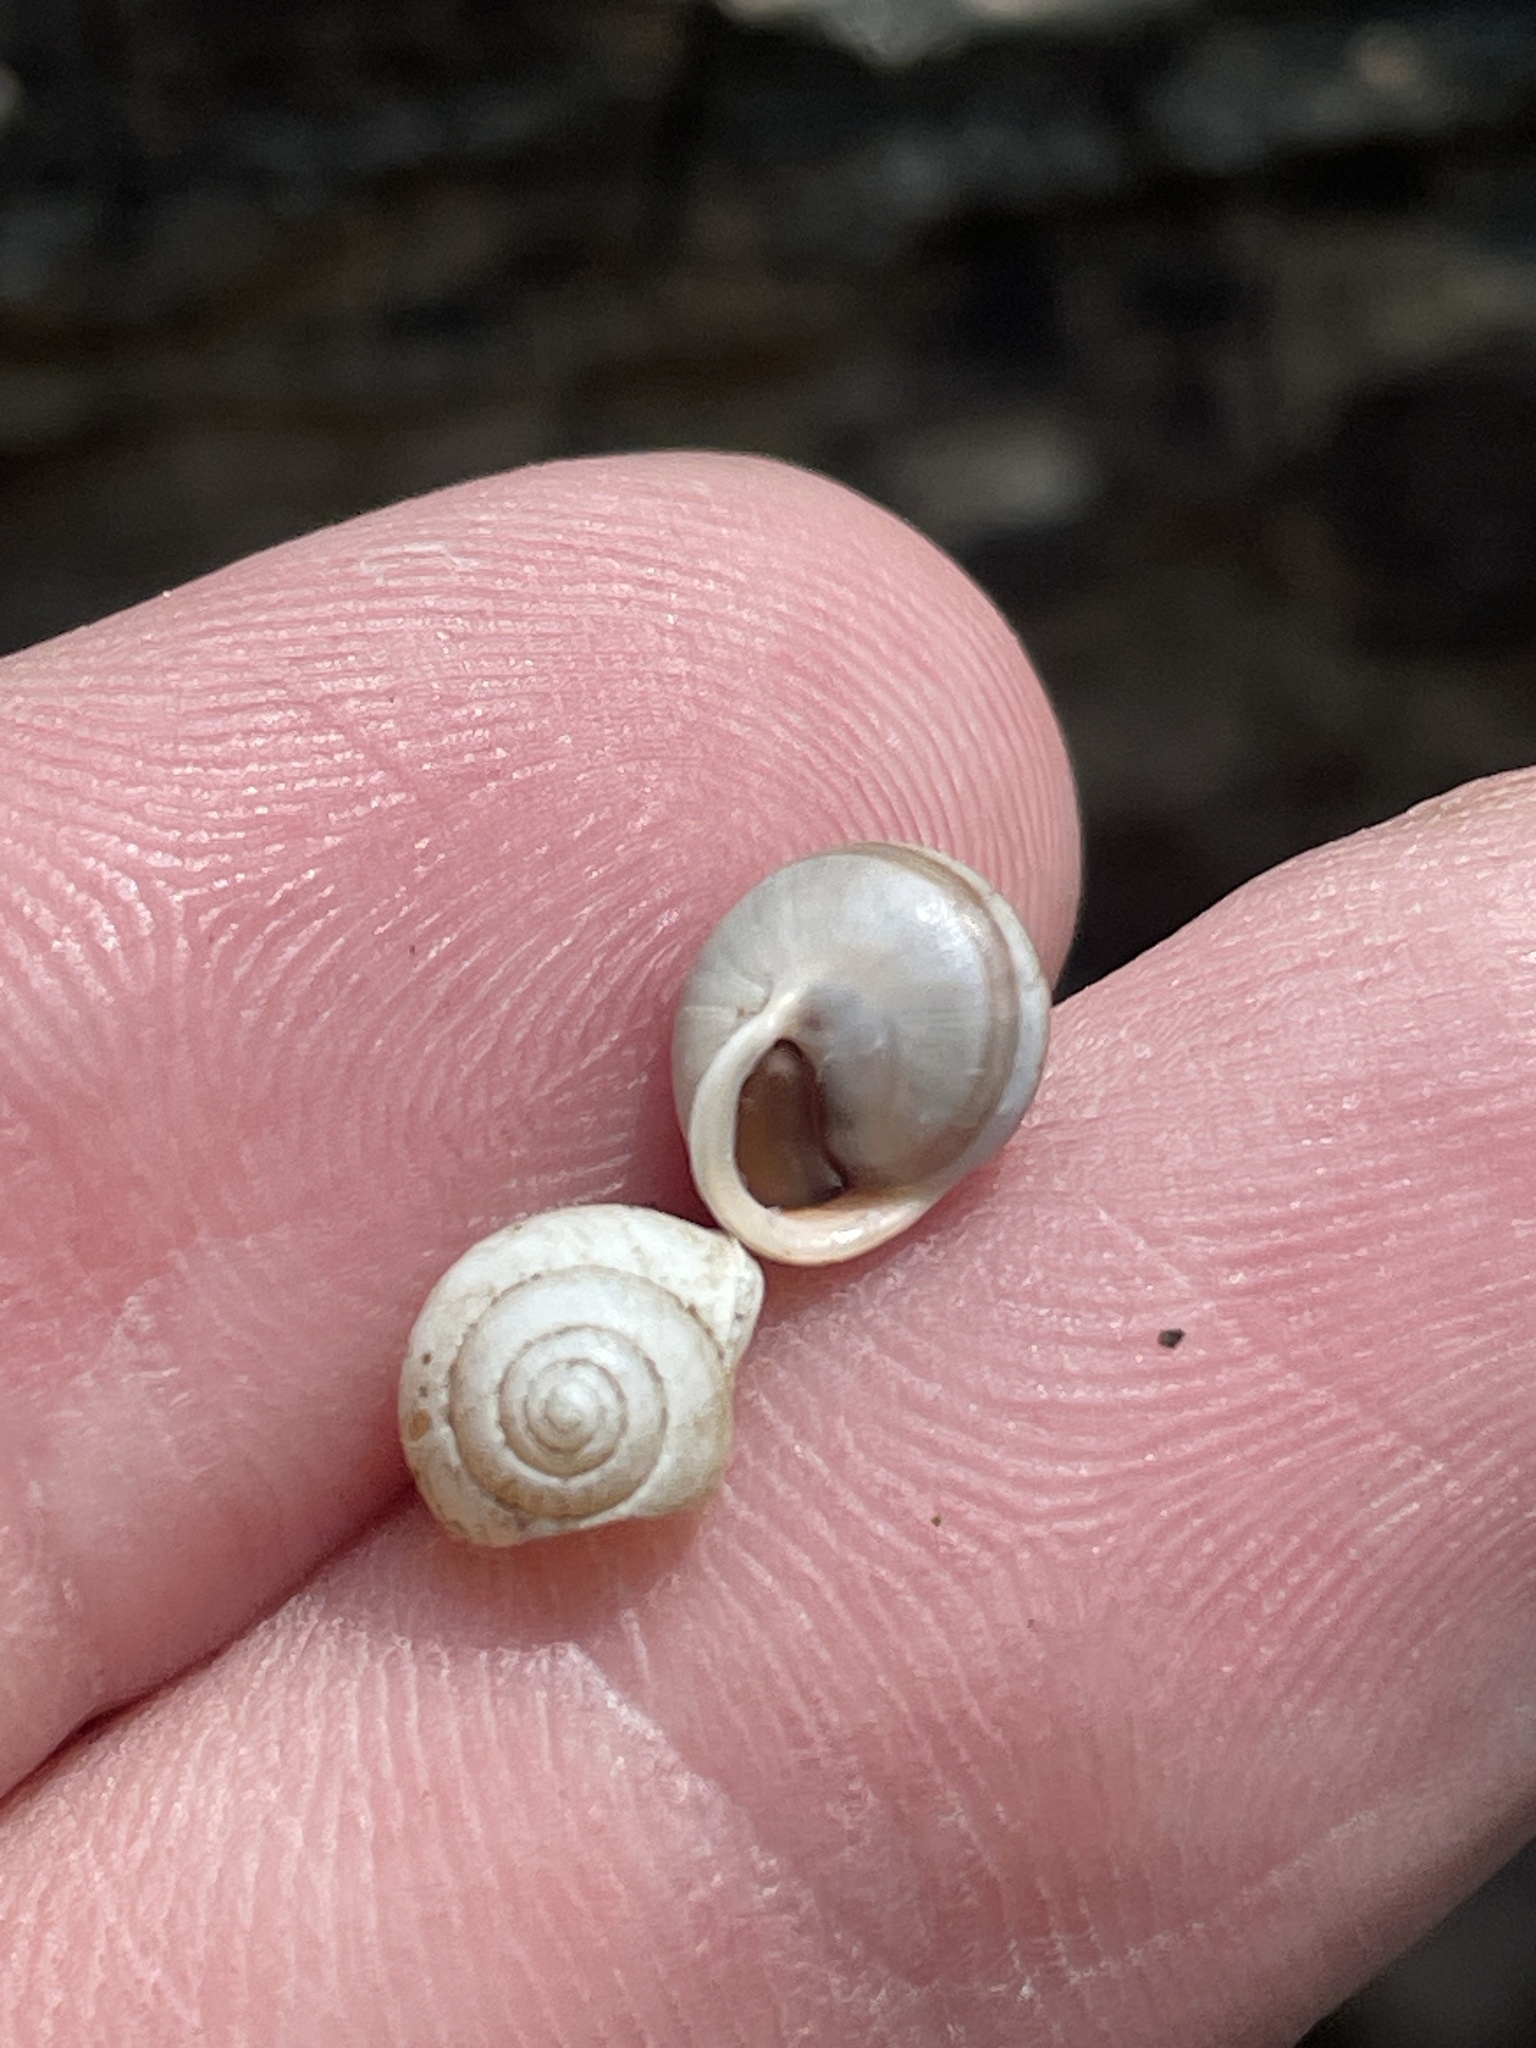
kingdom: Animalia
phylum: Mollusca
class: Gastropoda
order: Cycloneritida
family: Helicinidae
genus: Helicina
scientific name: Helicina orbiculata
